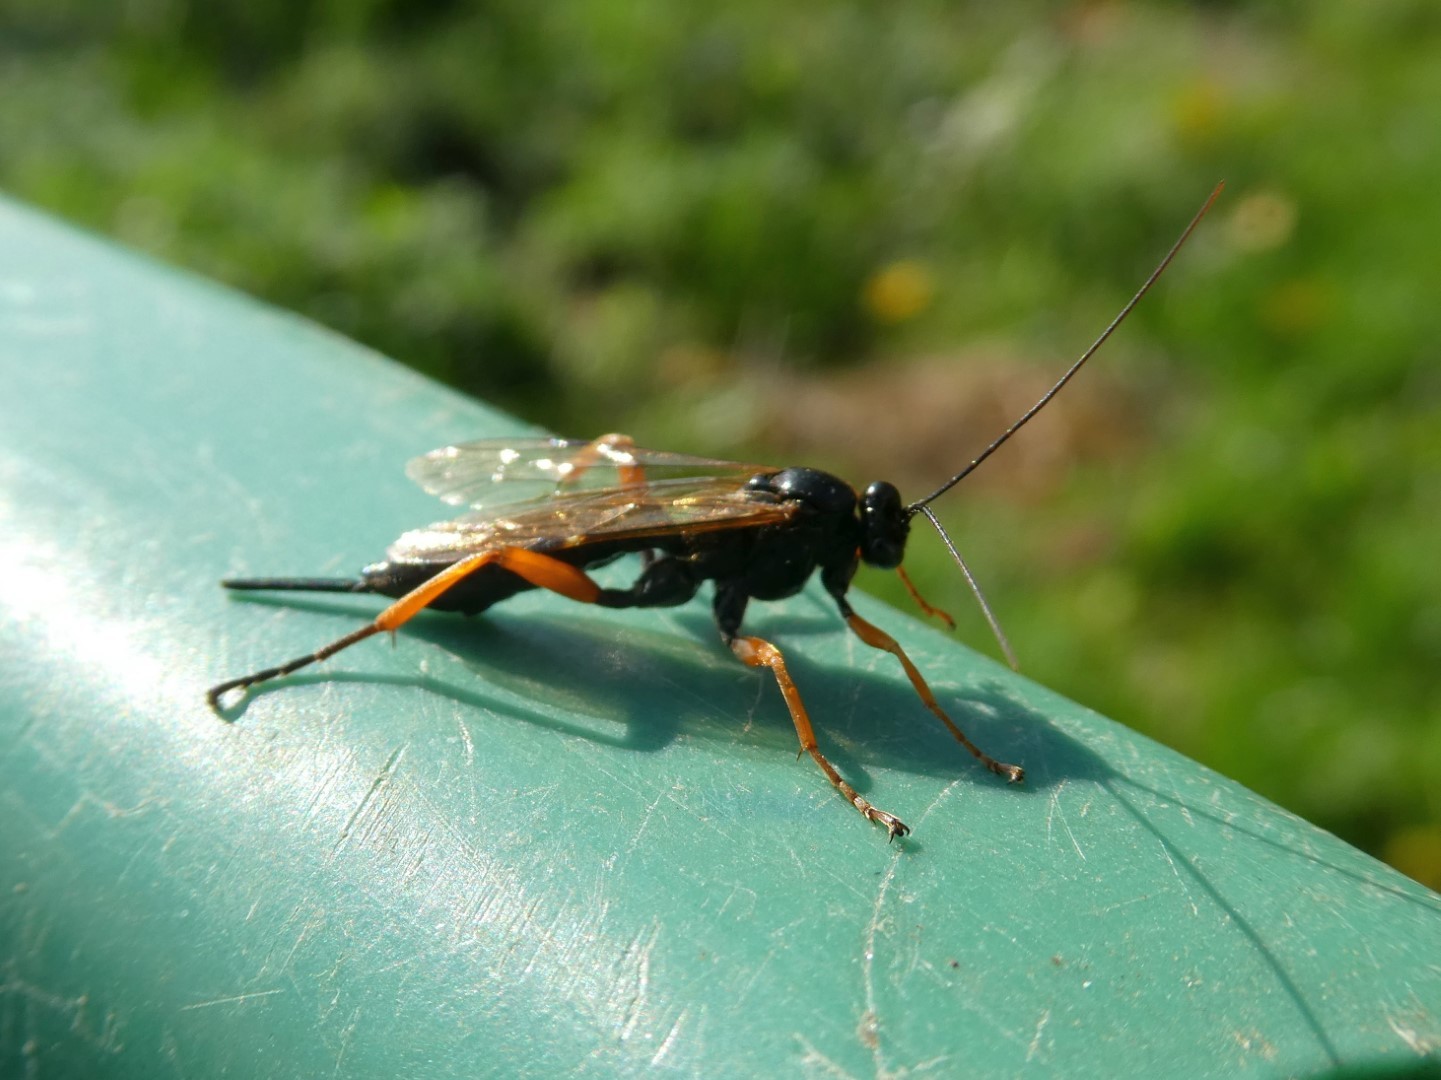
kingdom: Animalia
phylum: Arthropoda
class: Insecta
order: Hymenoptera
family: Ichneumonidae
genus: Pimpla
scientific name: Pimpla rufipes
